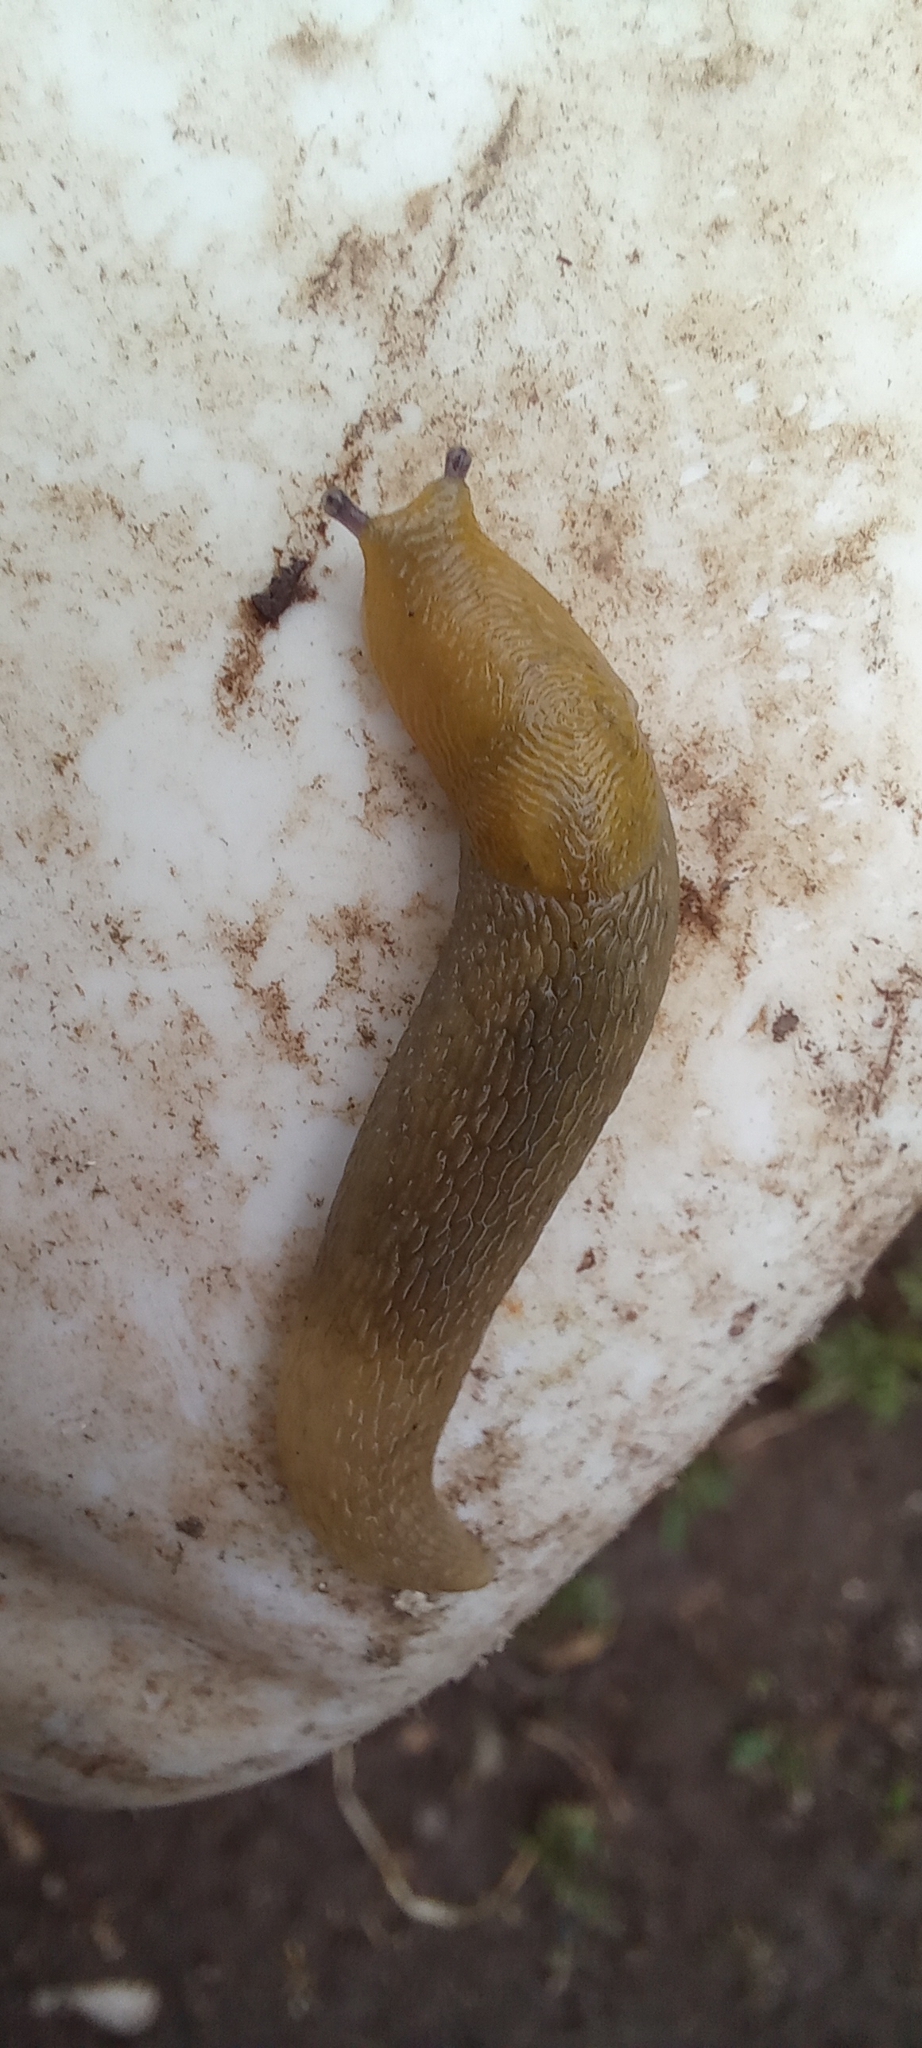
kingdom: Animalia
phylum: Mollusca
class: Gastropoda
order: Stylommatophora
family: Limacidae
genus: Limacus
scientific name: Limacus maculatus
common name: Irish yellow slug
